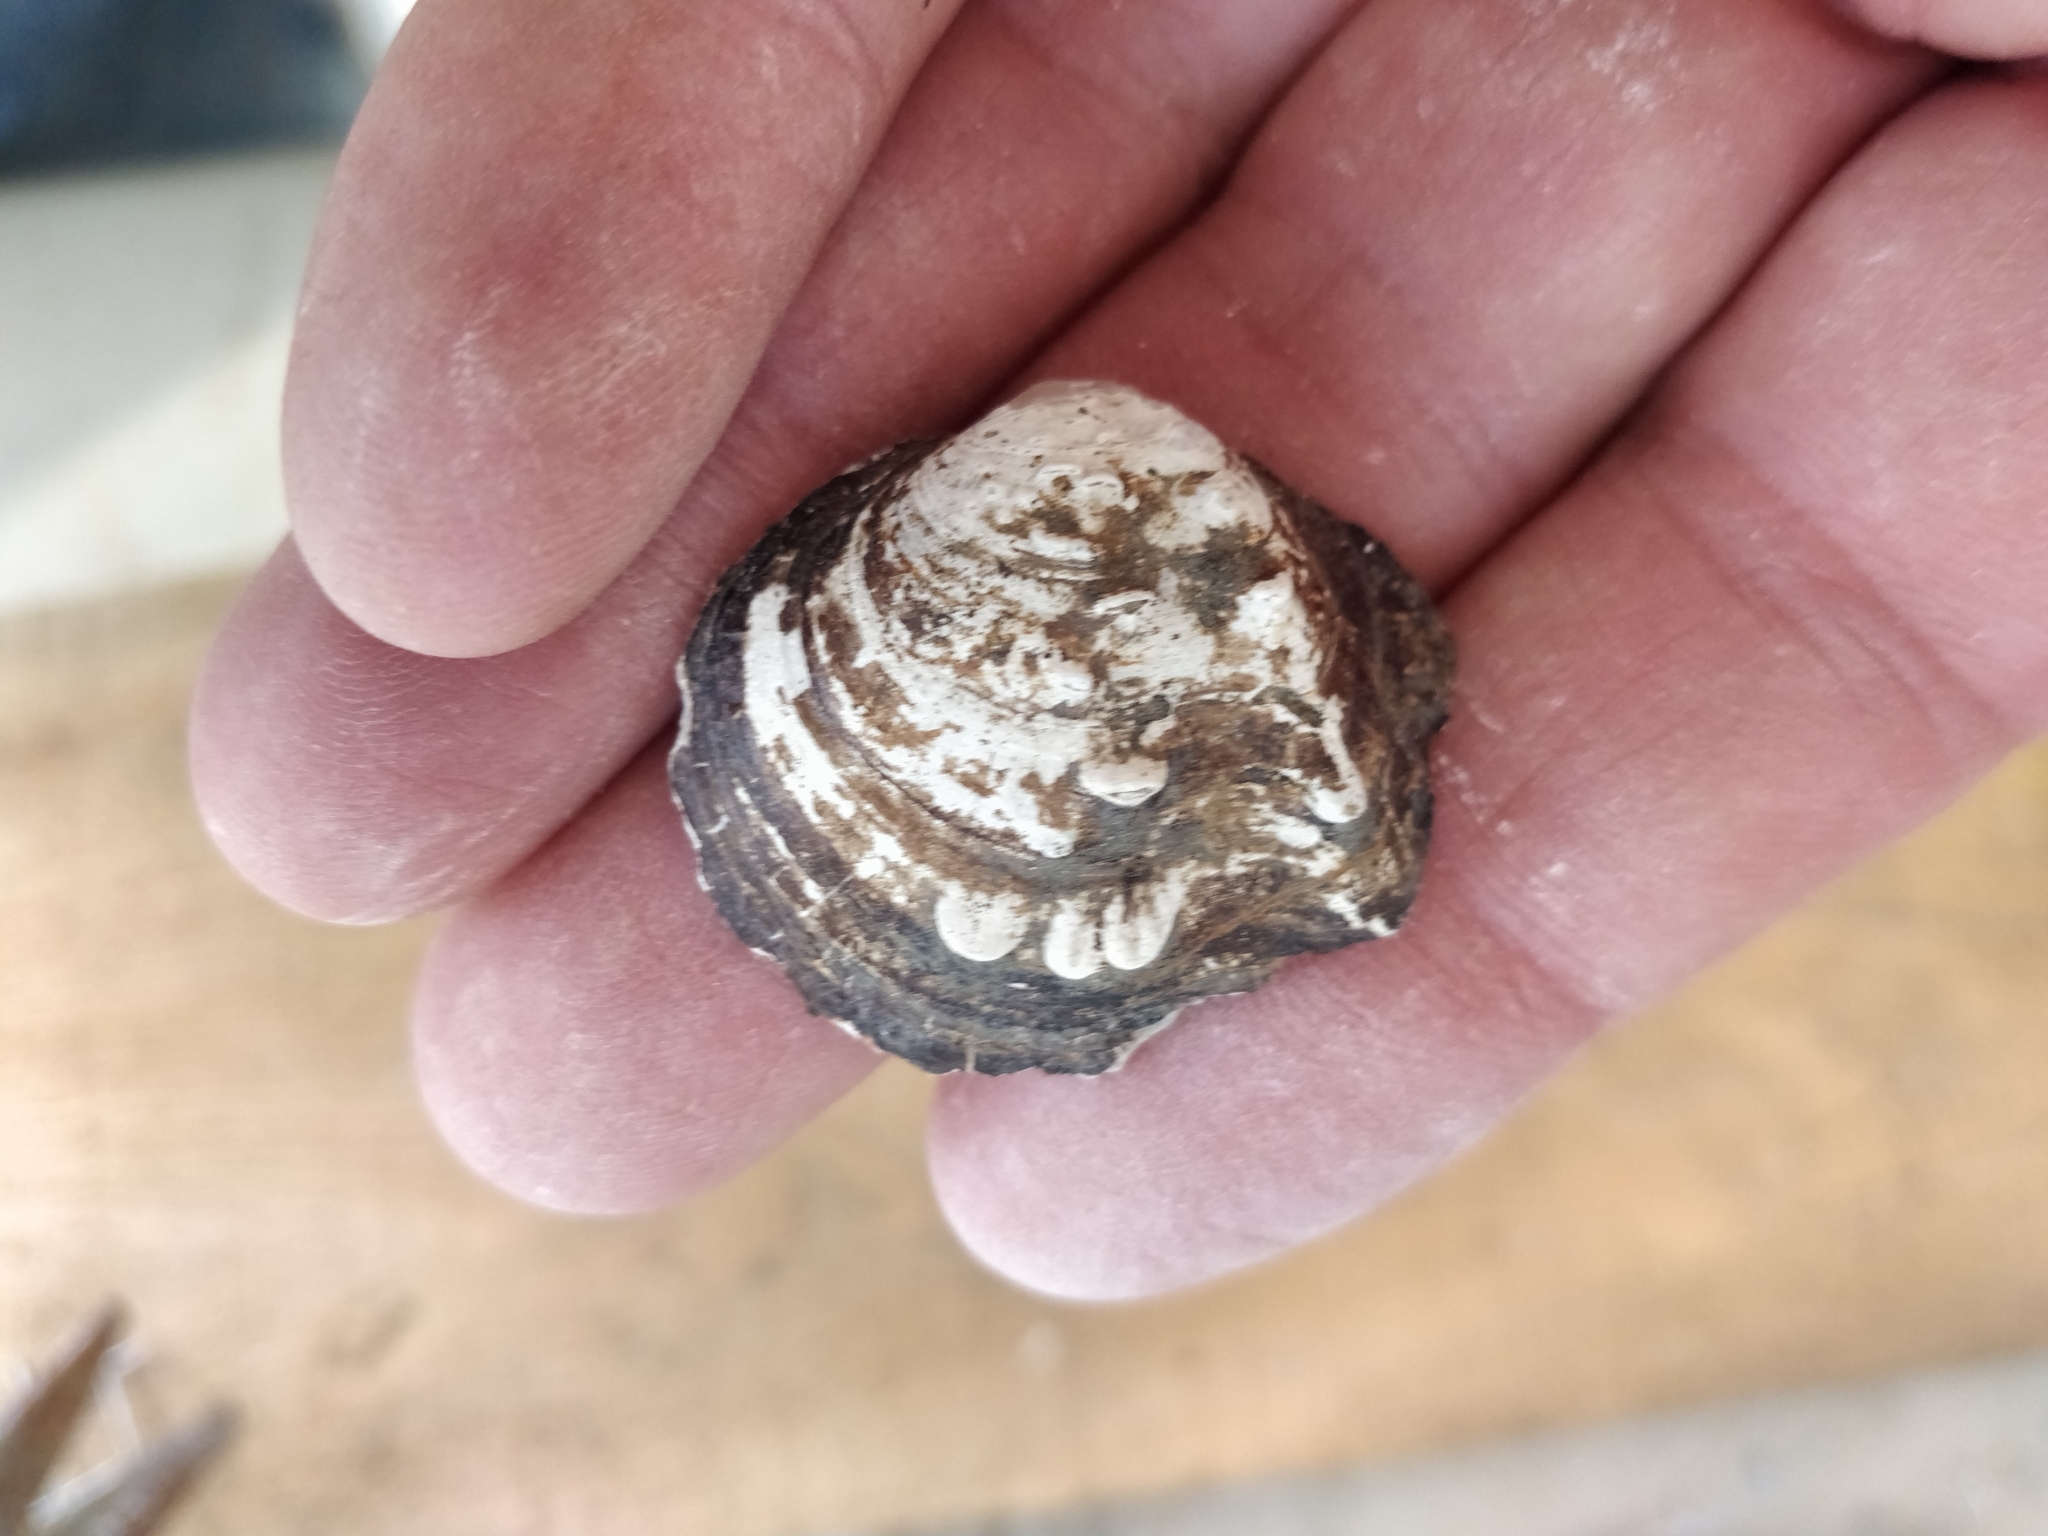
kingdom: Animalia
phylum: Mollusca
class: Bivalvia
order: Unionida
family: Unionidae
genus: Quadrula
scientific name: Quadrula quadrula
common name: Mapleleaf
